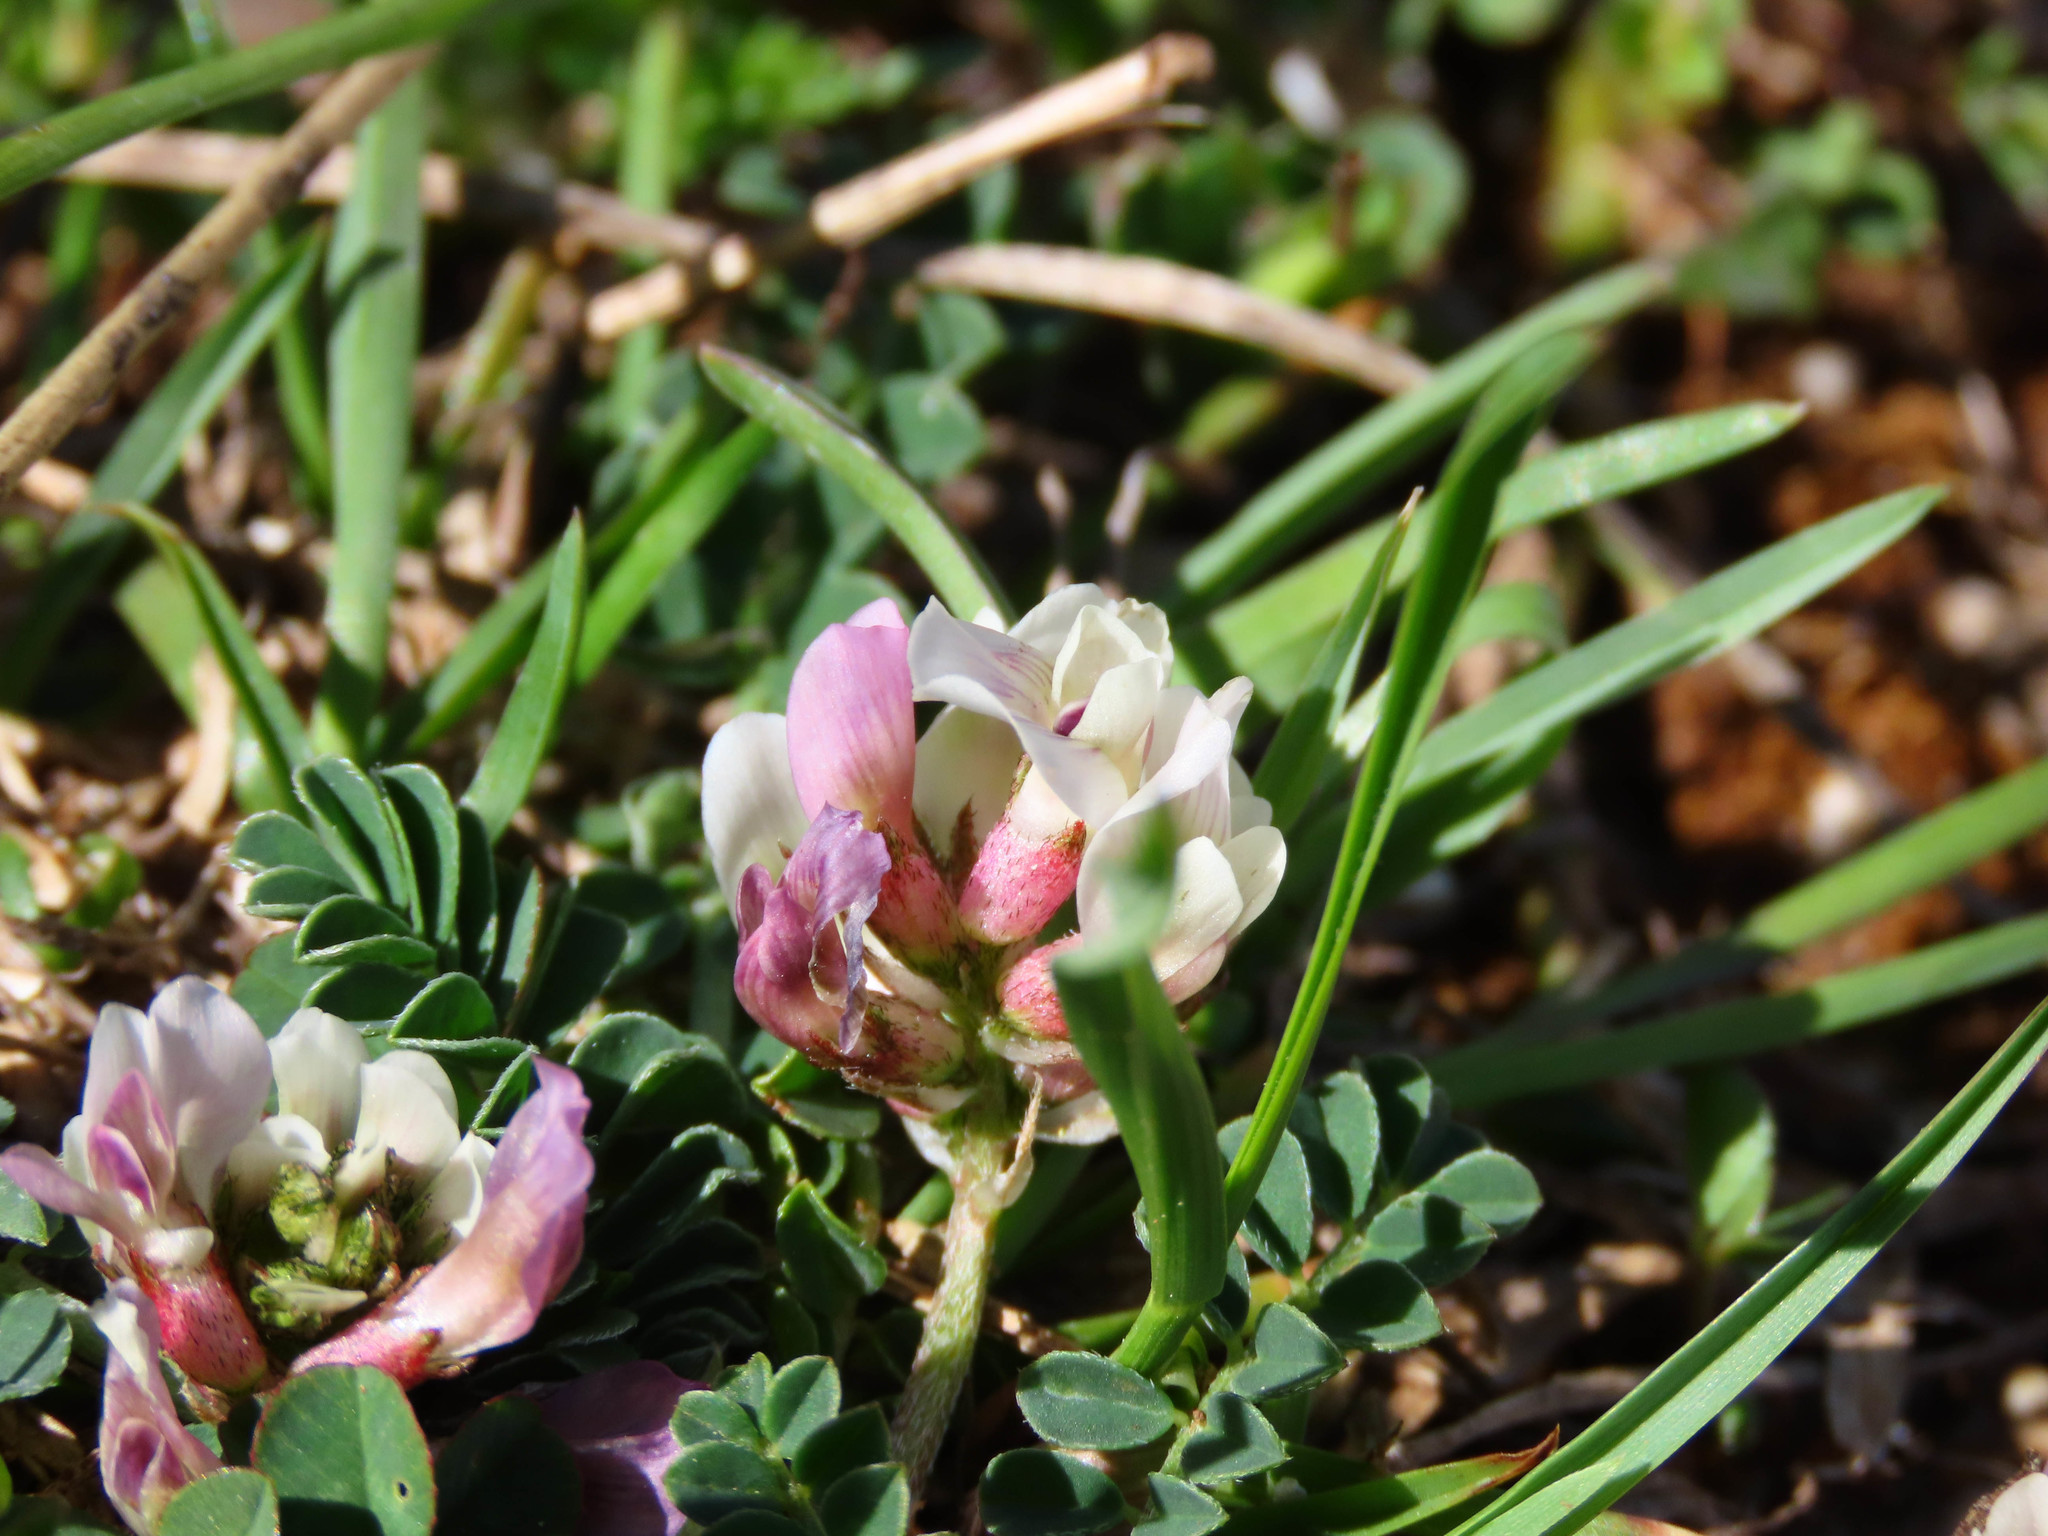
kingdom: Plantae
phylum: Tracheophyta
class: Magnoliopsida
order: Fabales
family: Fabaceae
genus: Astragalus
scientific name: Astragalus depressus
